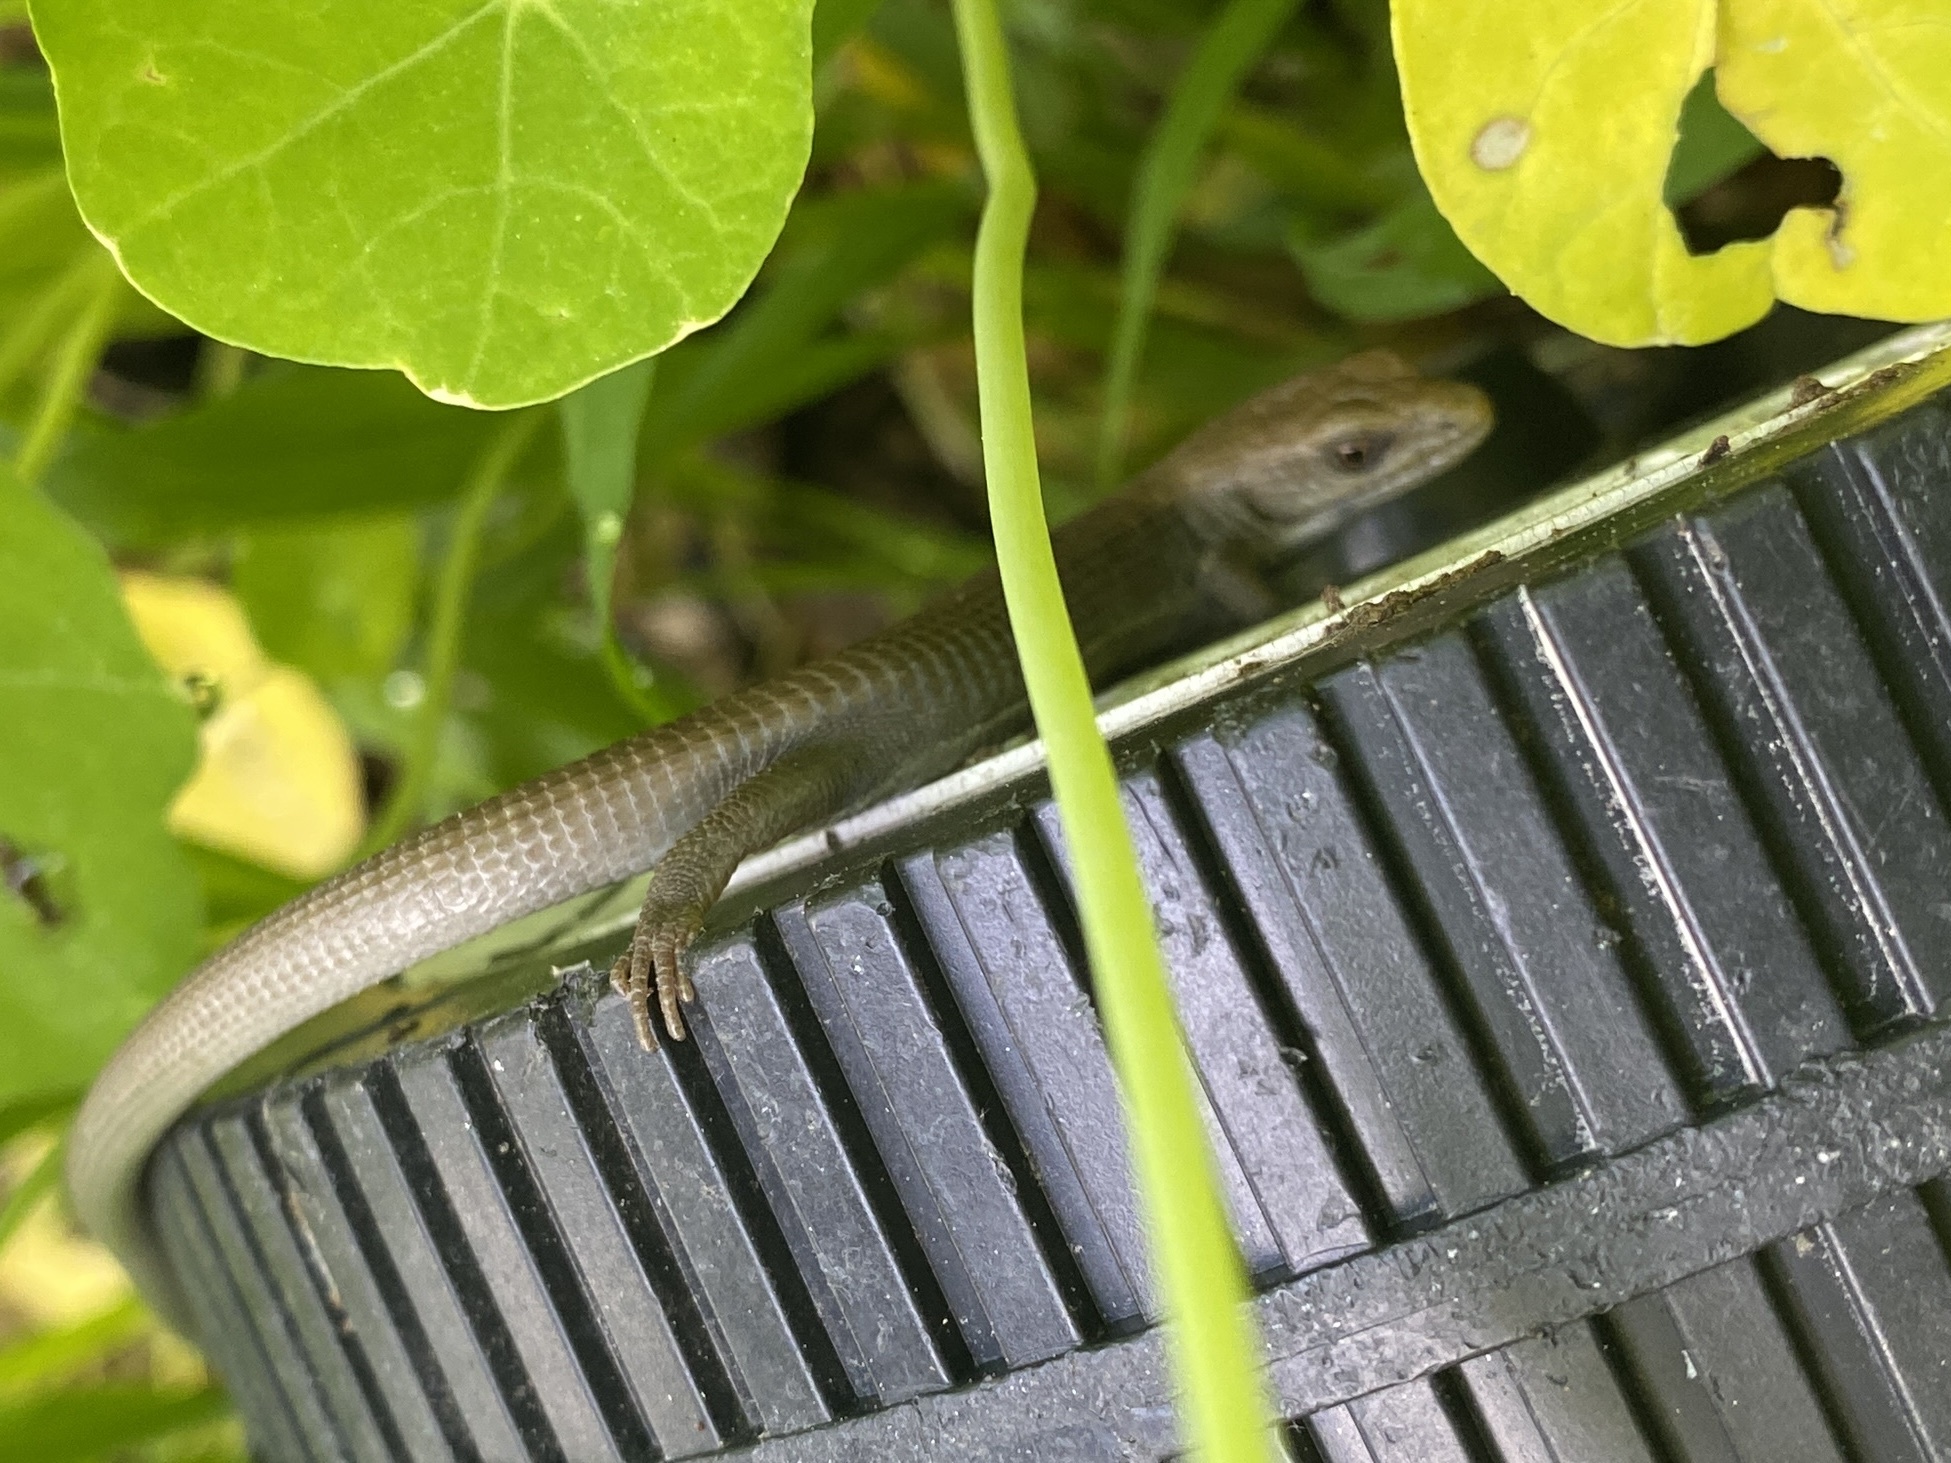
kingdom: Animalia
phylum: Chordata
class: Squamata
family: Anguidae
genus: Elgaria
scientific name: Elgaria multicarinata
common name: Southern alligator lizard
